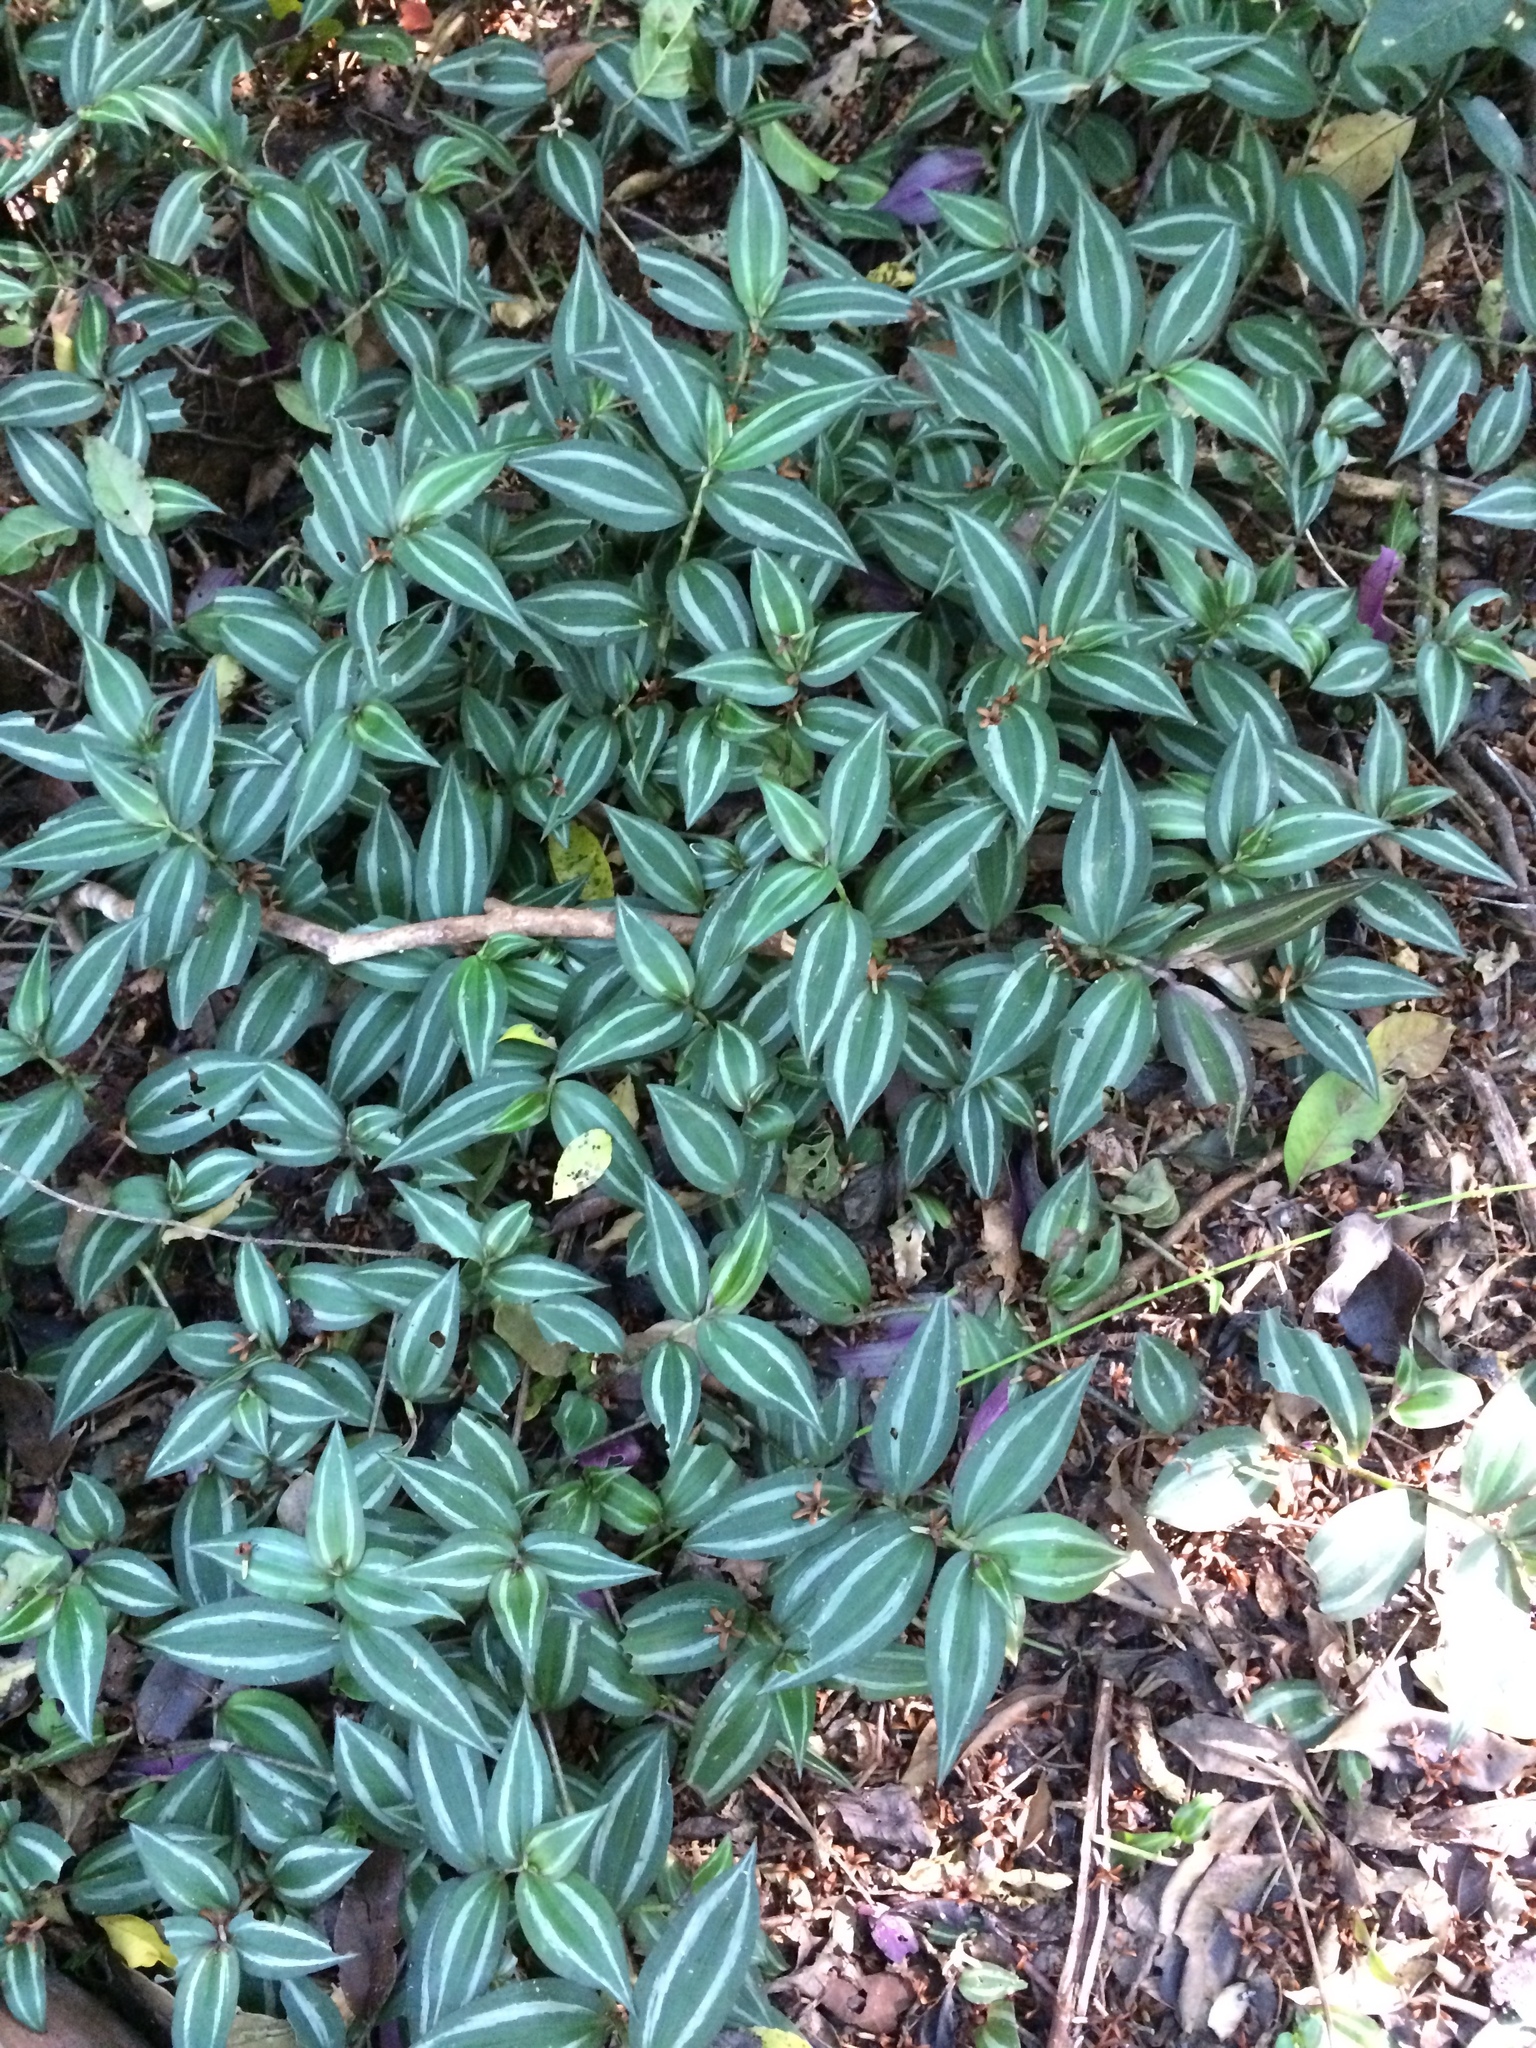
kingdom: Plantae
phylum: Tracheophyta
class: Liliopsida
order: Commelinales
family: Commelinaceae
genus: Tradescantia
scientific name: Tradescantia zebrina
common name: Inchplant
